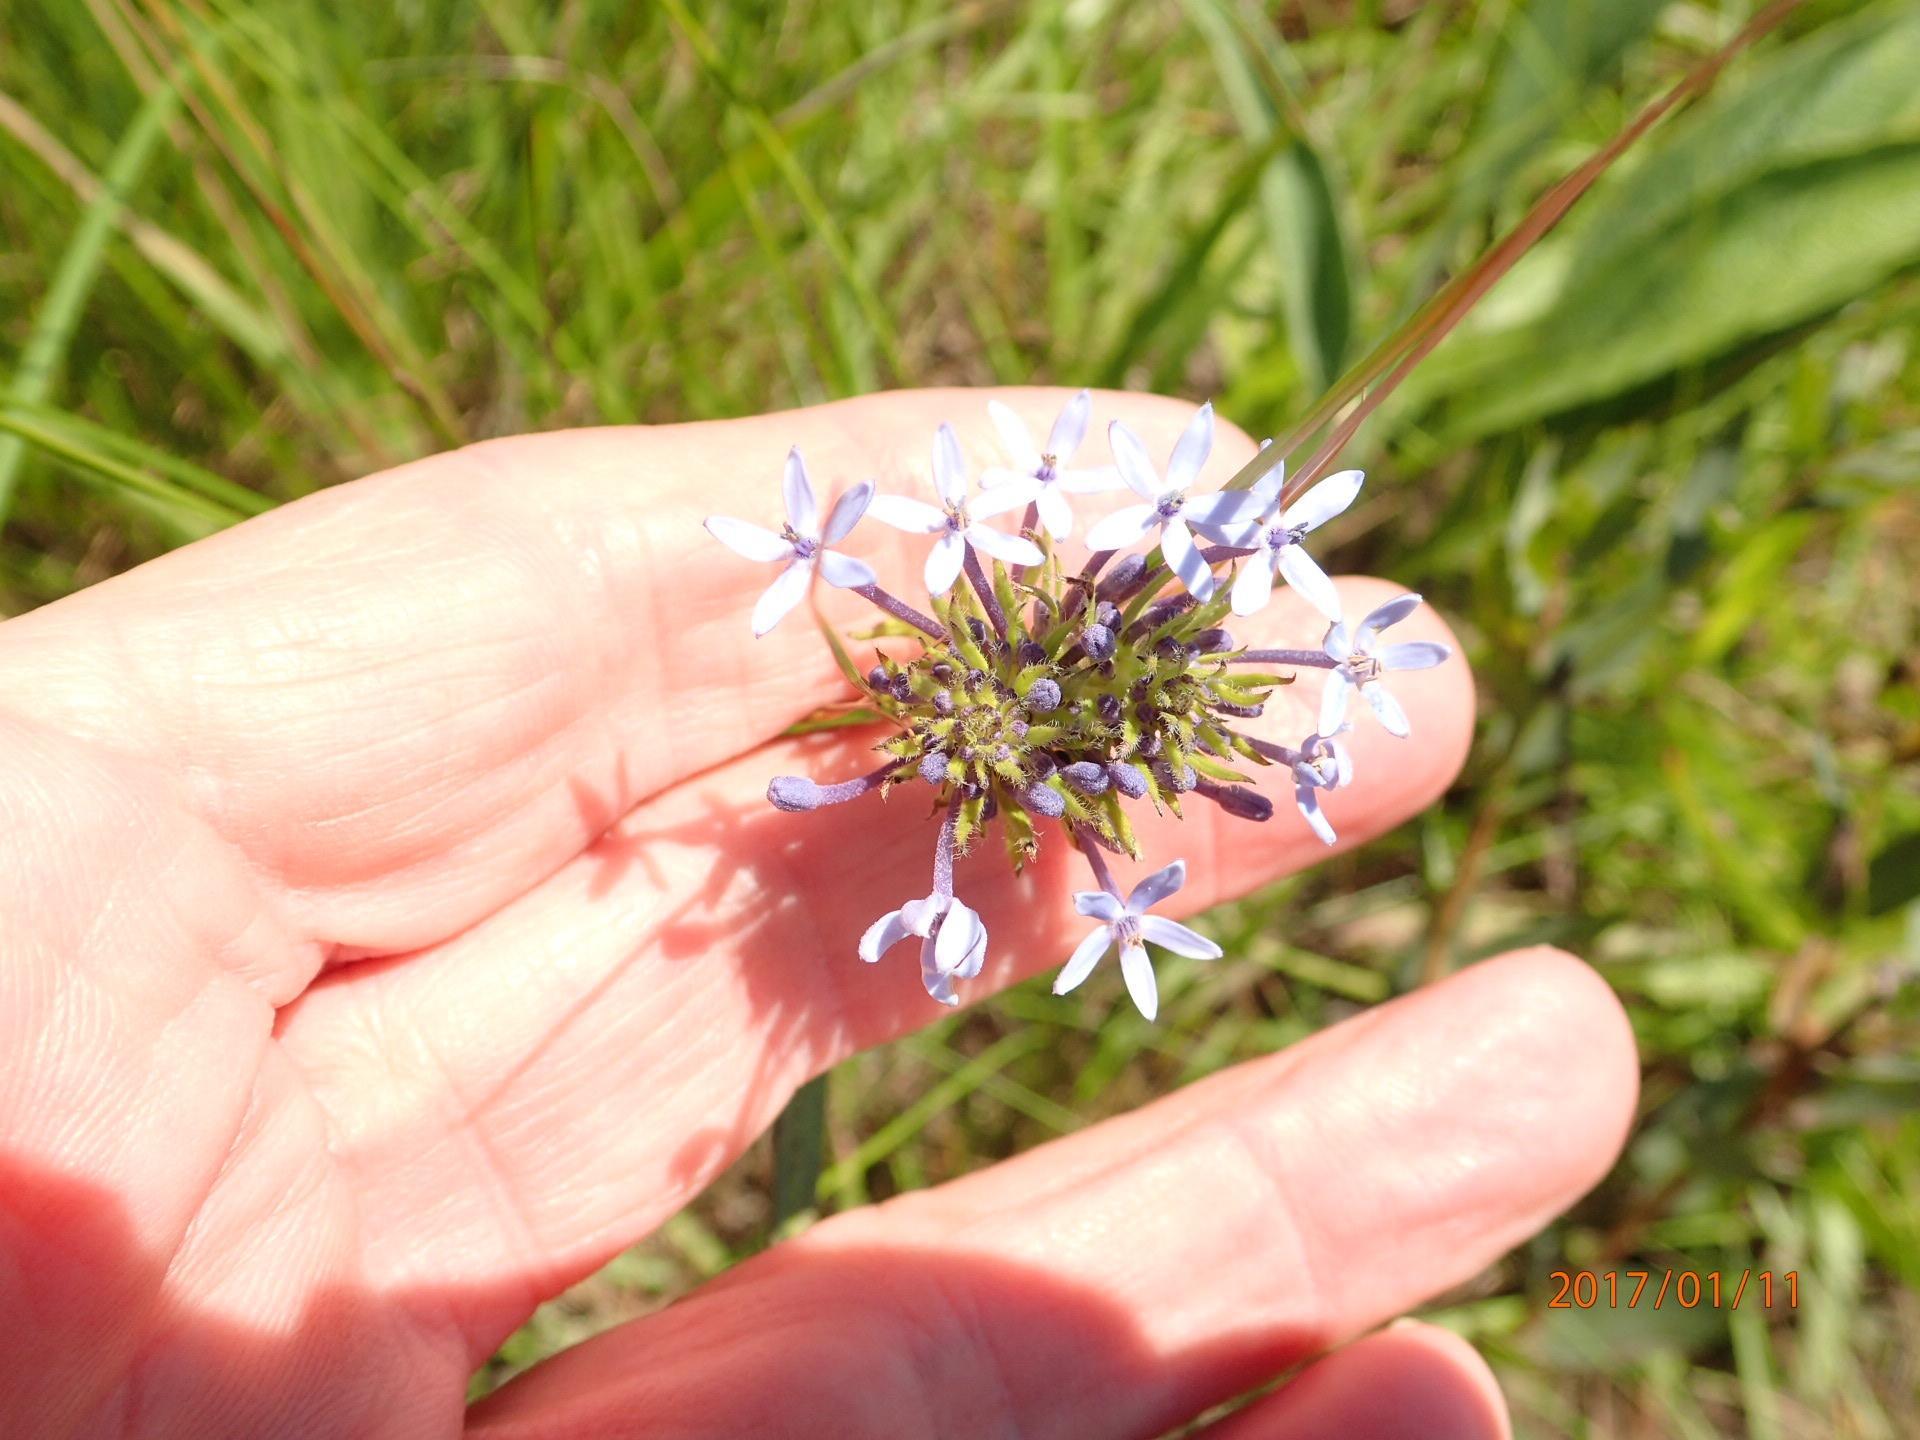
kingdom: Plantae
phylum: Tracheophyta
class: Magnoliopsida
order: Gentianales
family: Rubiaceae
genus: Pentanisia
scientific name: Pentanisia angustifolia
